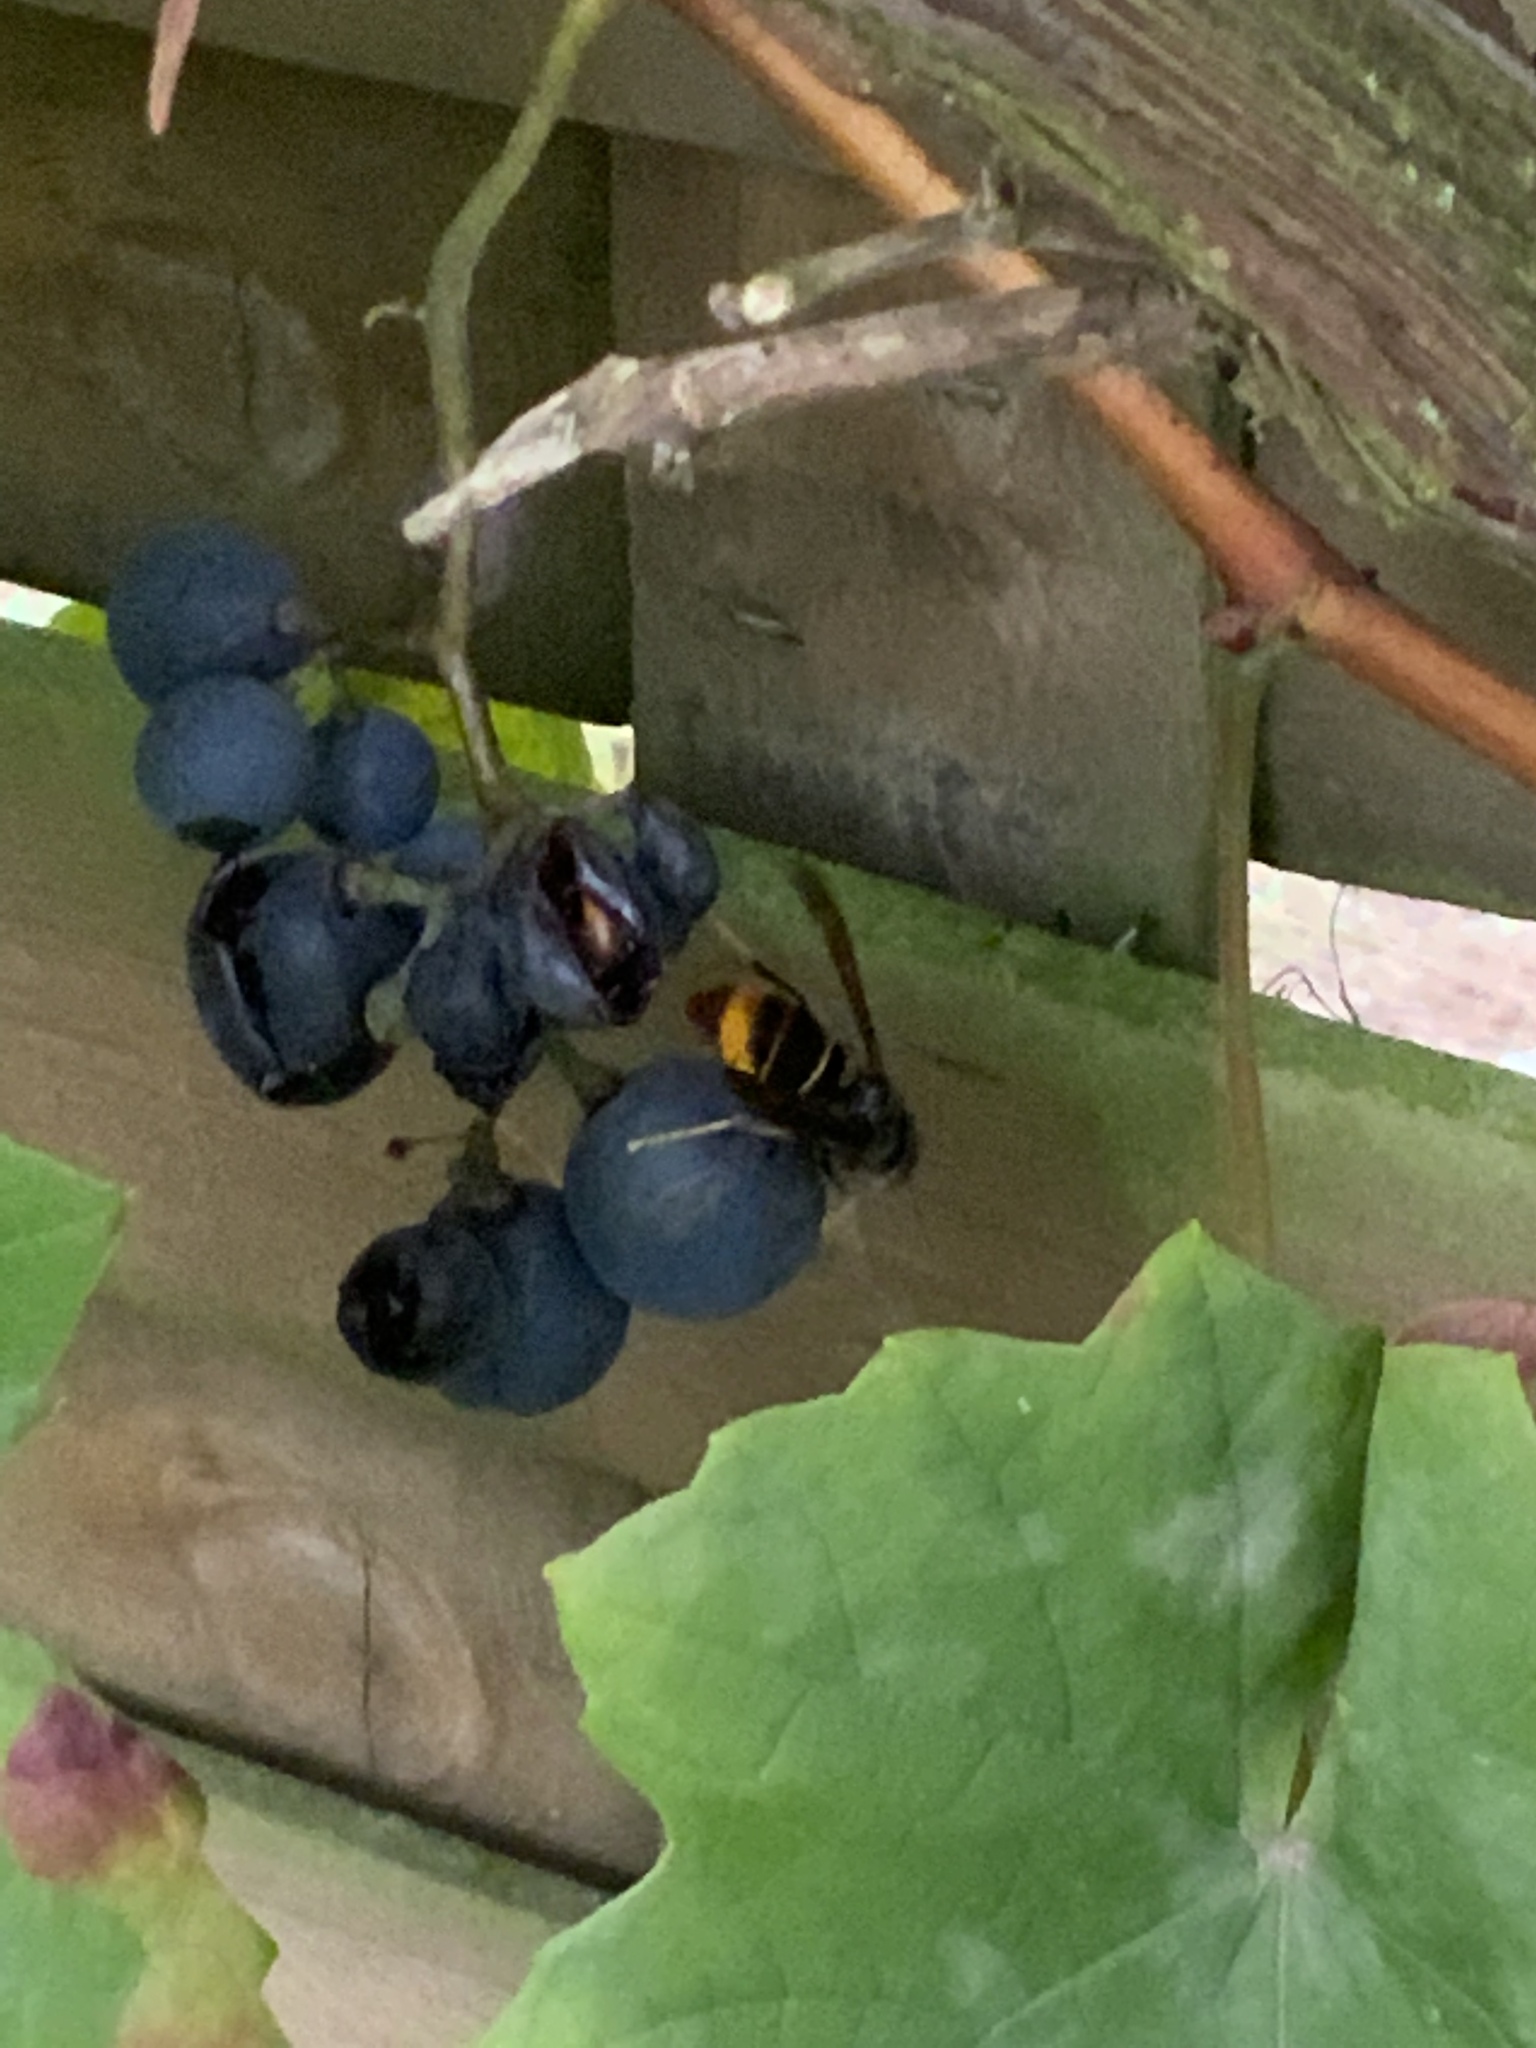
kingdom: Animalia
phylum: Arthropoda
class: Insecta
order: Hymenoptera
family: Vespidae
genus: Vespa
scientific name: Vespa velutina
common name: Asian hornet
